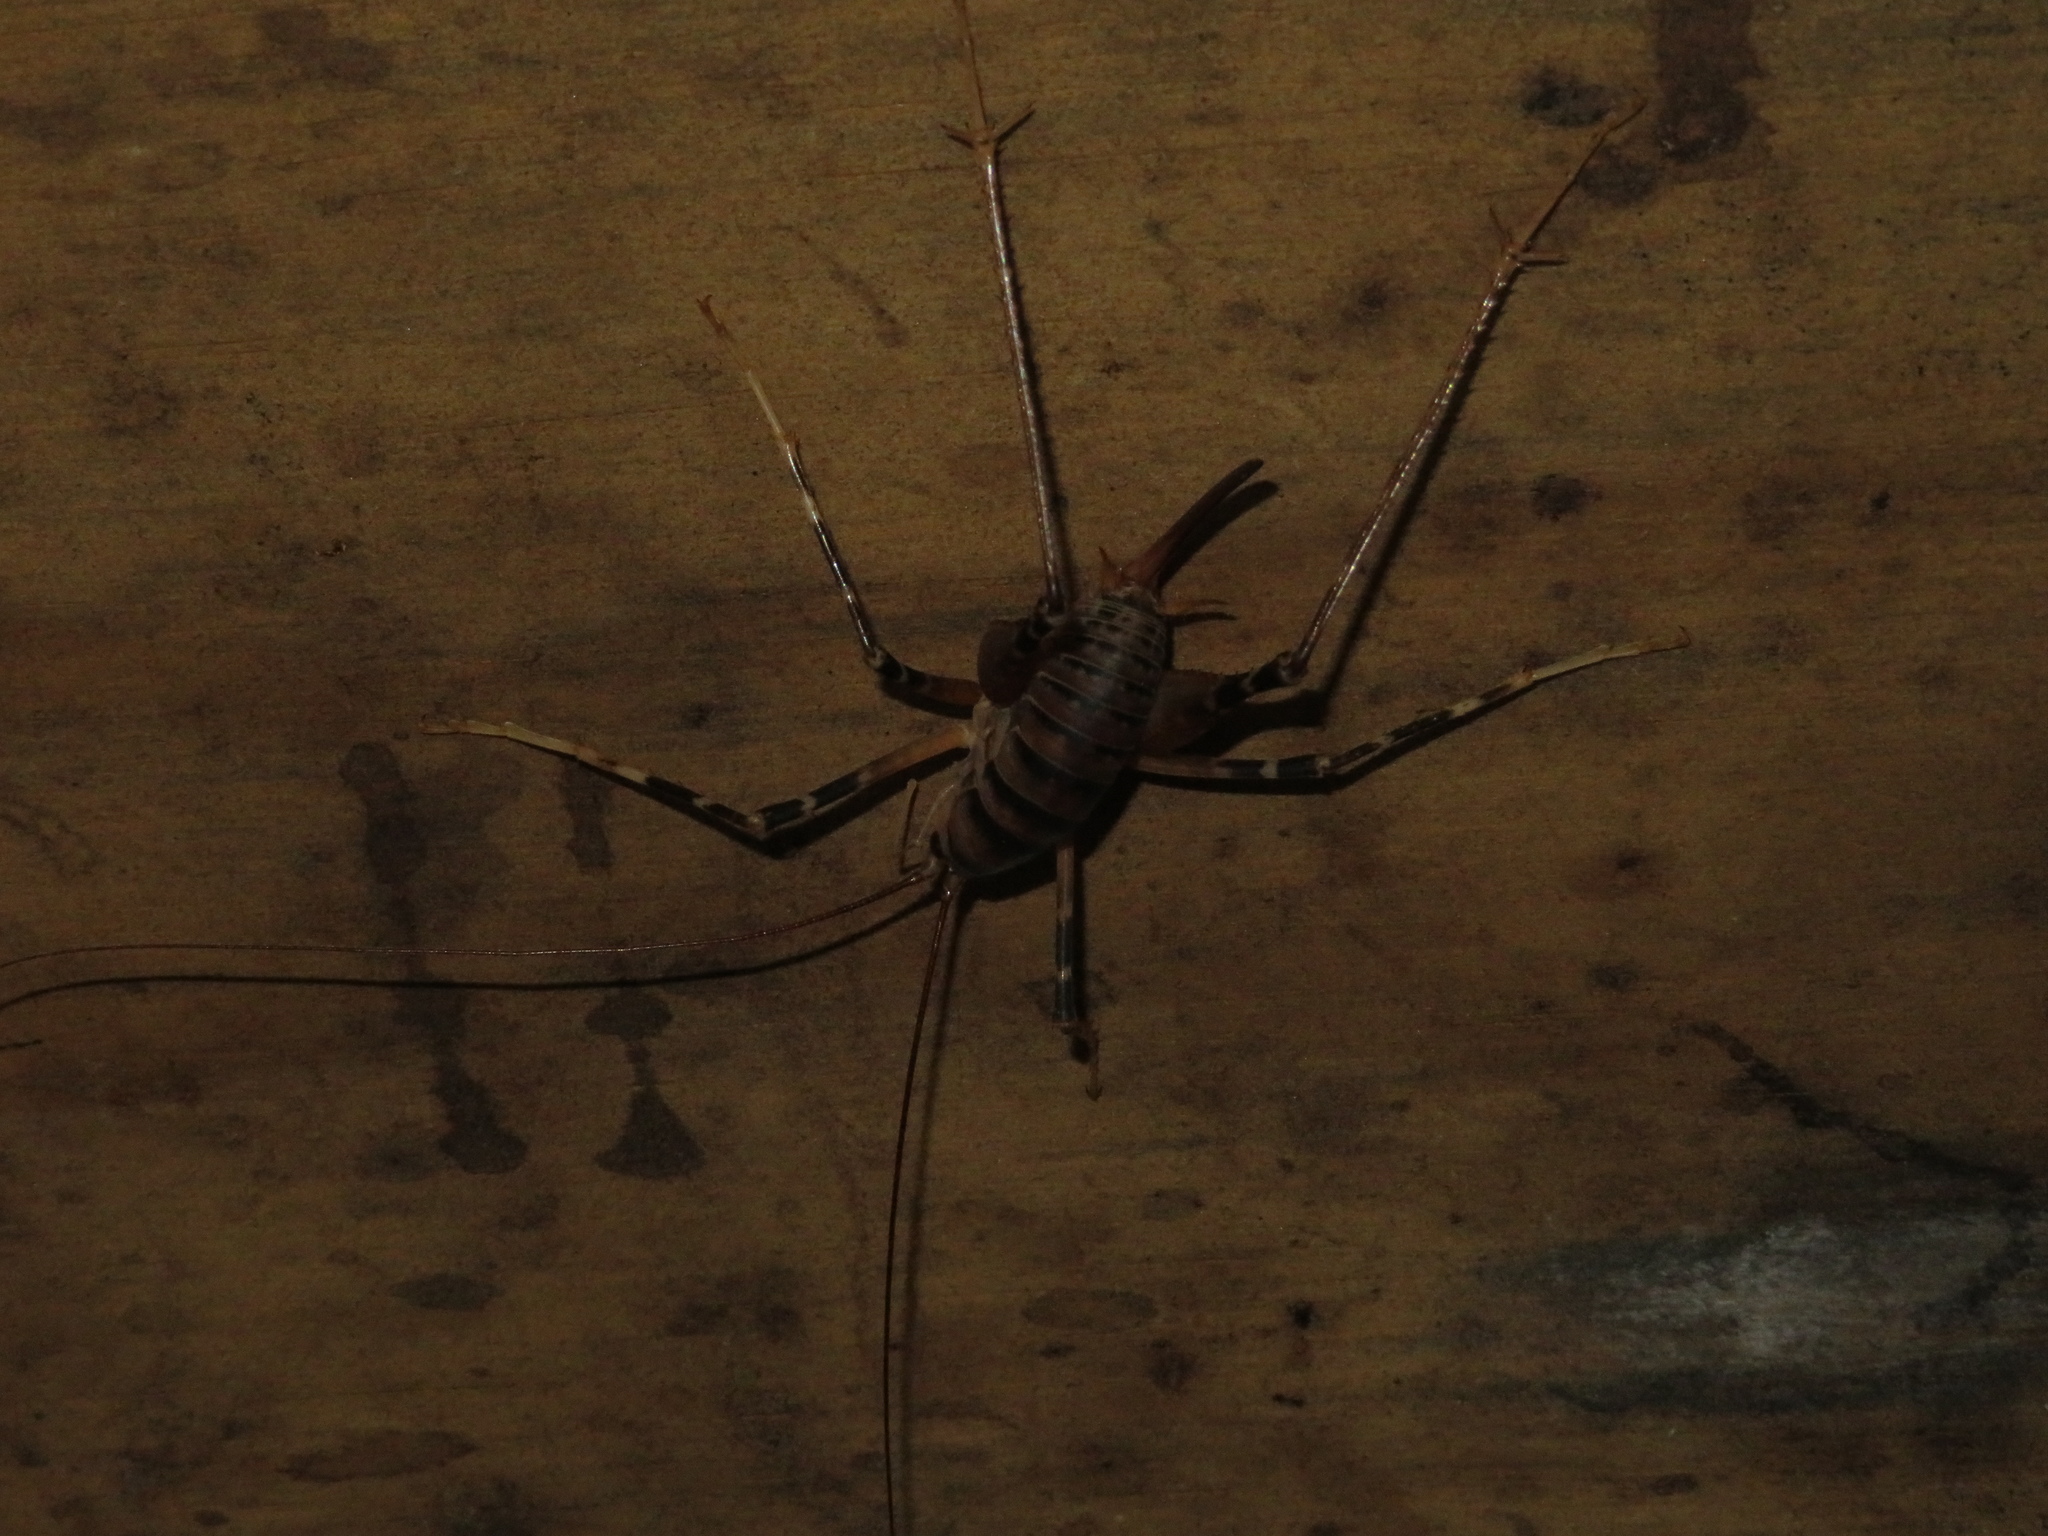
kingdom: Animalia
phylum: Arthropoda
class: Insecta
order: Orthoptera
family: Rhaphidophoridae
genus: Pachyrhamma
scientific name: Pachyrhamma edwardsii
